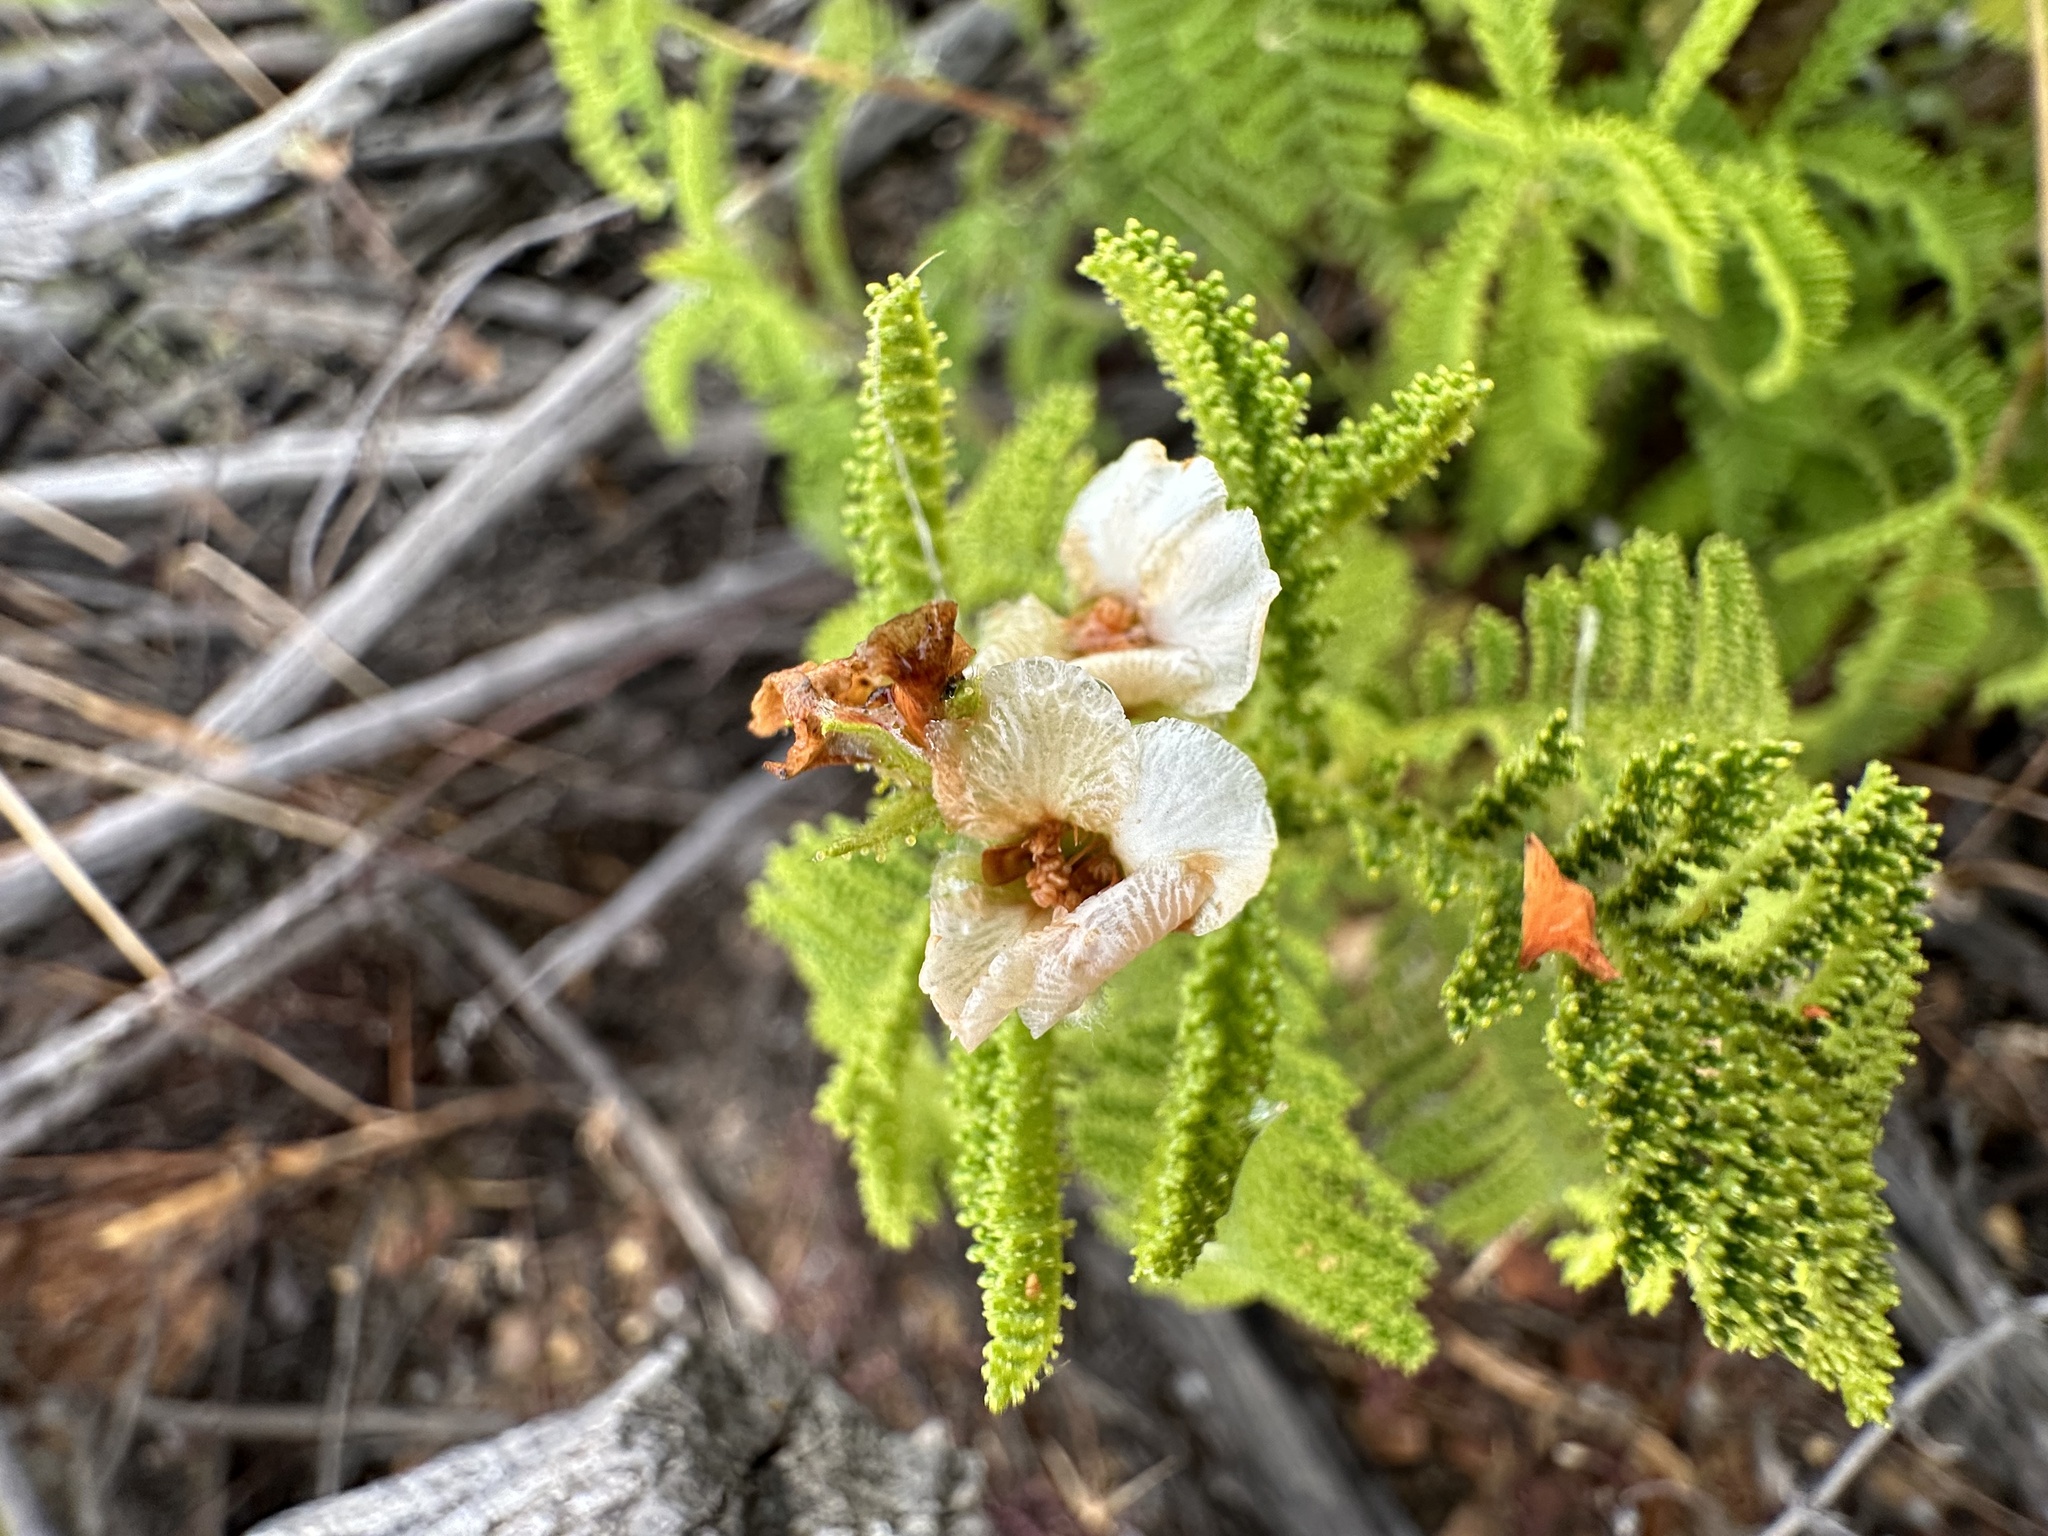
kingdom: Plantae
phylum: Tracheophyta
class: Magnoliopsida
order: Rosales
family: Rosaceae
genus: Chamaebatia
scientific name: Chamaebatia australis
